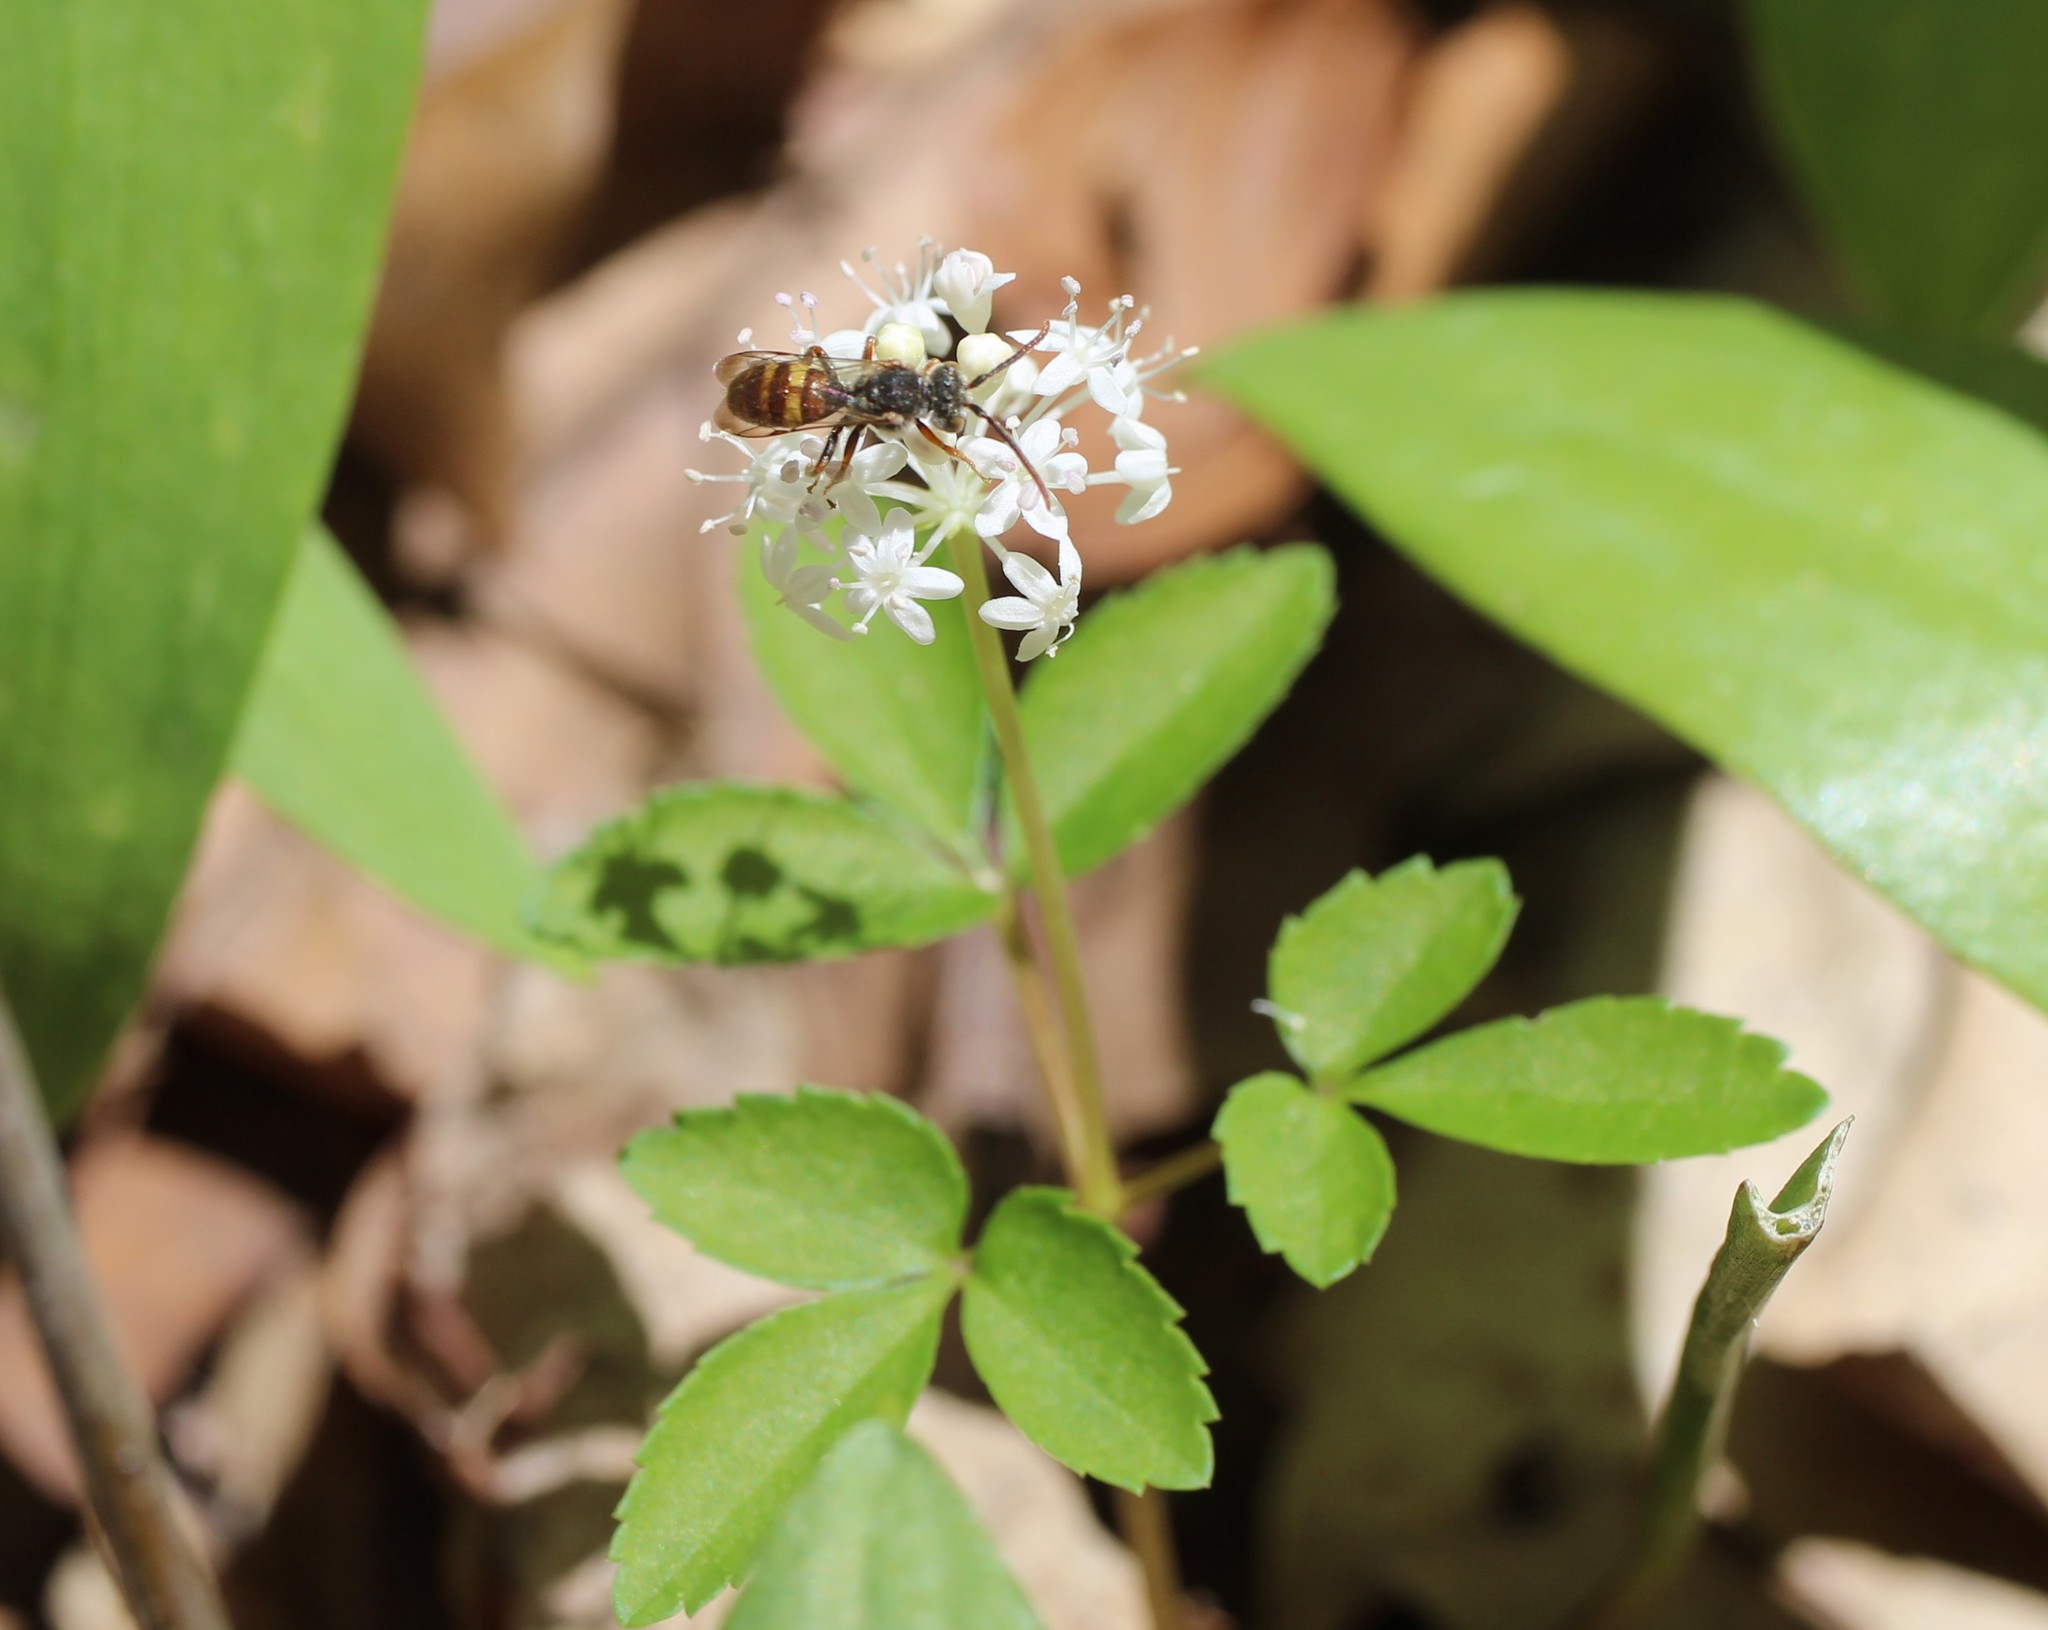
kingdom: Plantae
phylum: Tracheophyta
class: Magnoliopsida
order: Apiales
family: Araliaceae
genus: Panax
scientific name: Panax trifolius
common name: Dwarf ginseng
